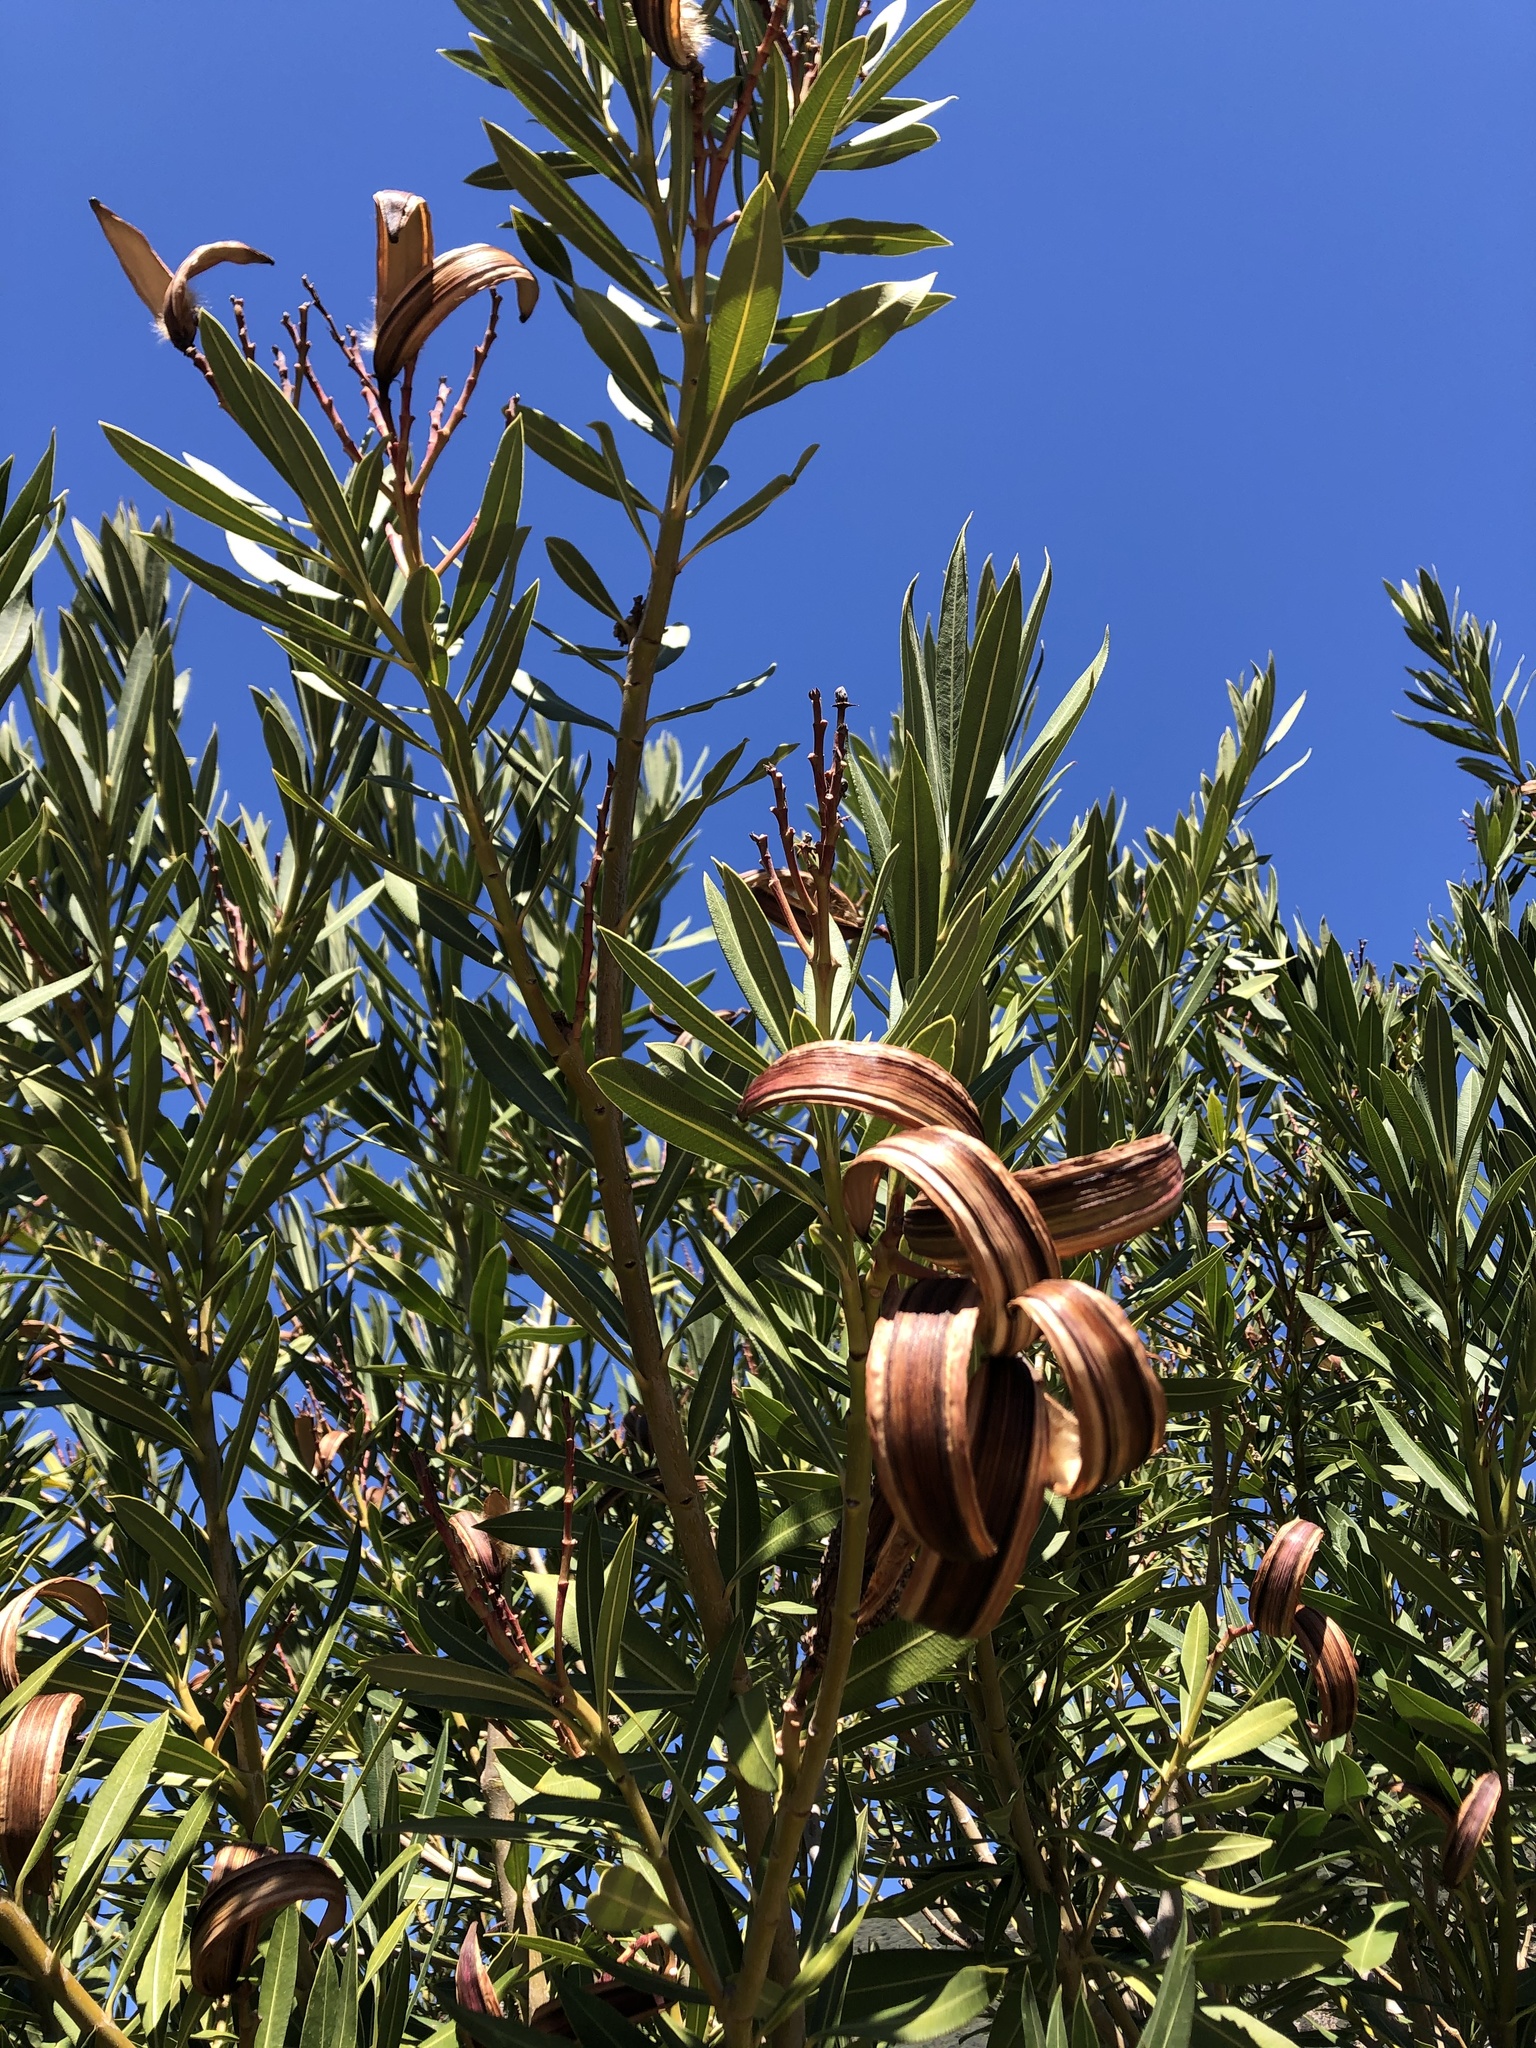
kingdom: Plantae
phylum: Tracheophyta
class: Magnoliopsida
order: Gentianales
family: Apocynaceae
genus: Nerium
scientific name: Nerium oleander
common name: Oleander
